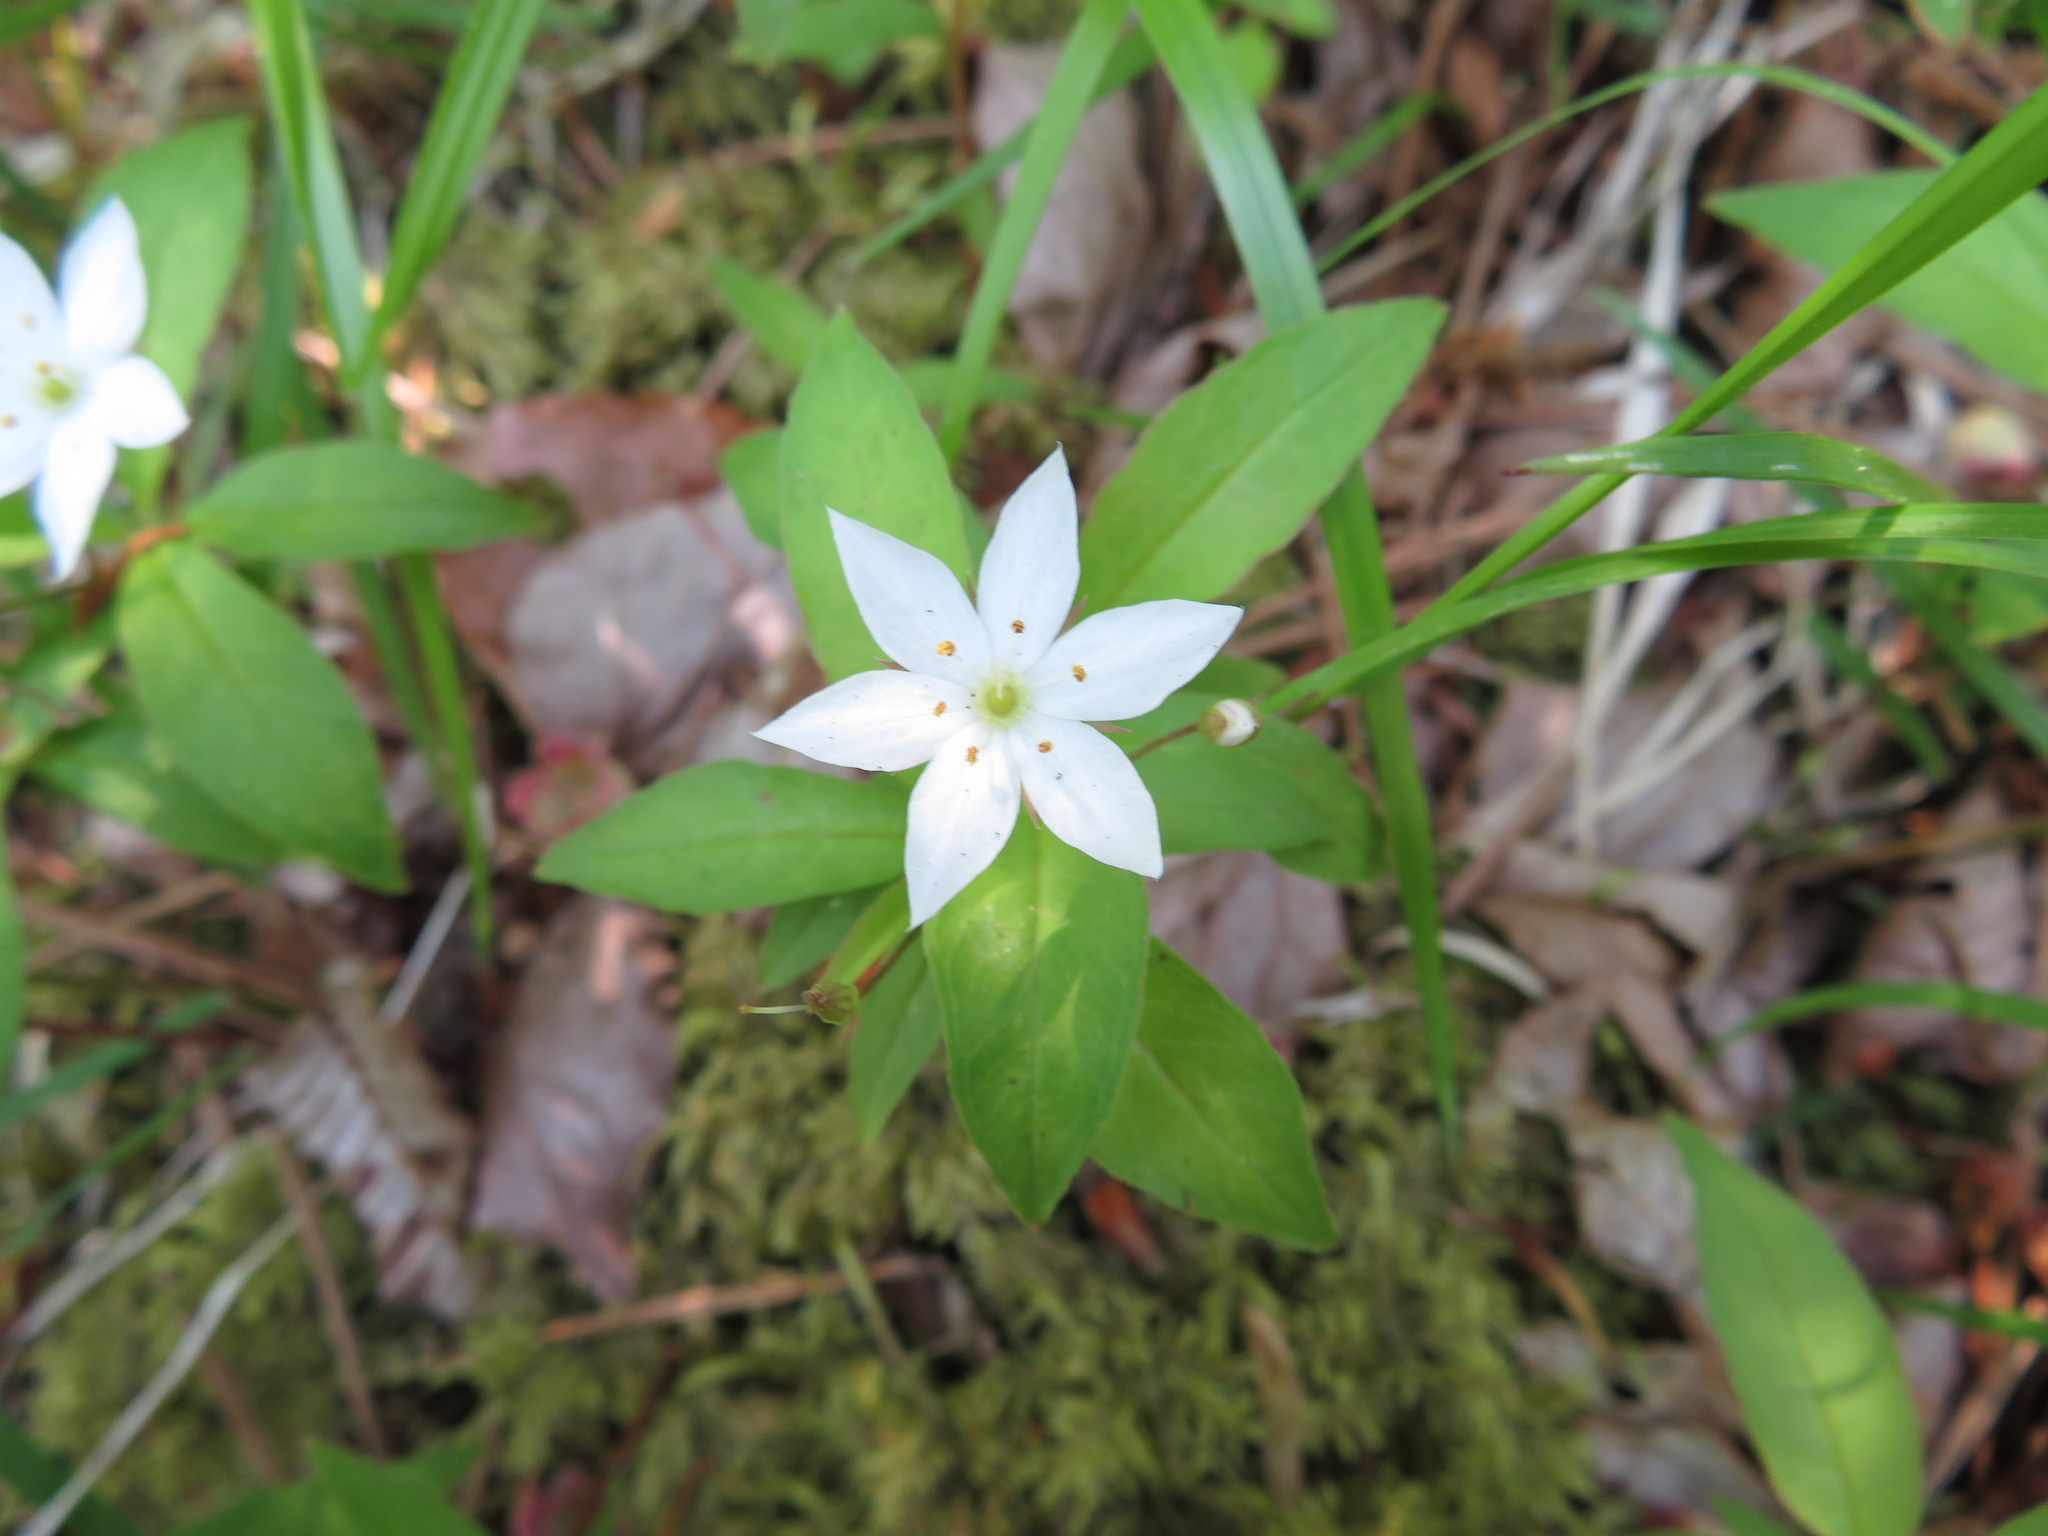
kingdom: Plantae
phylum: Tracheophyta
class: Magnoliopsida
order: Ericales
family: Primulaceae
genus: Lysimachia
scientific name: Lysimachia europaea
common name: Arctic starflower
